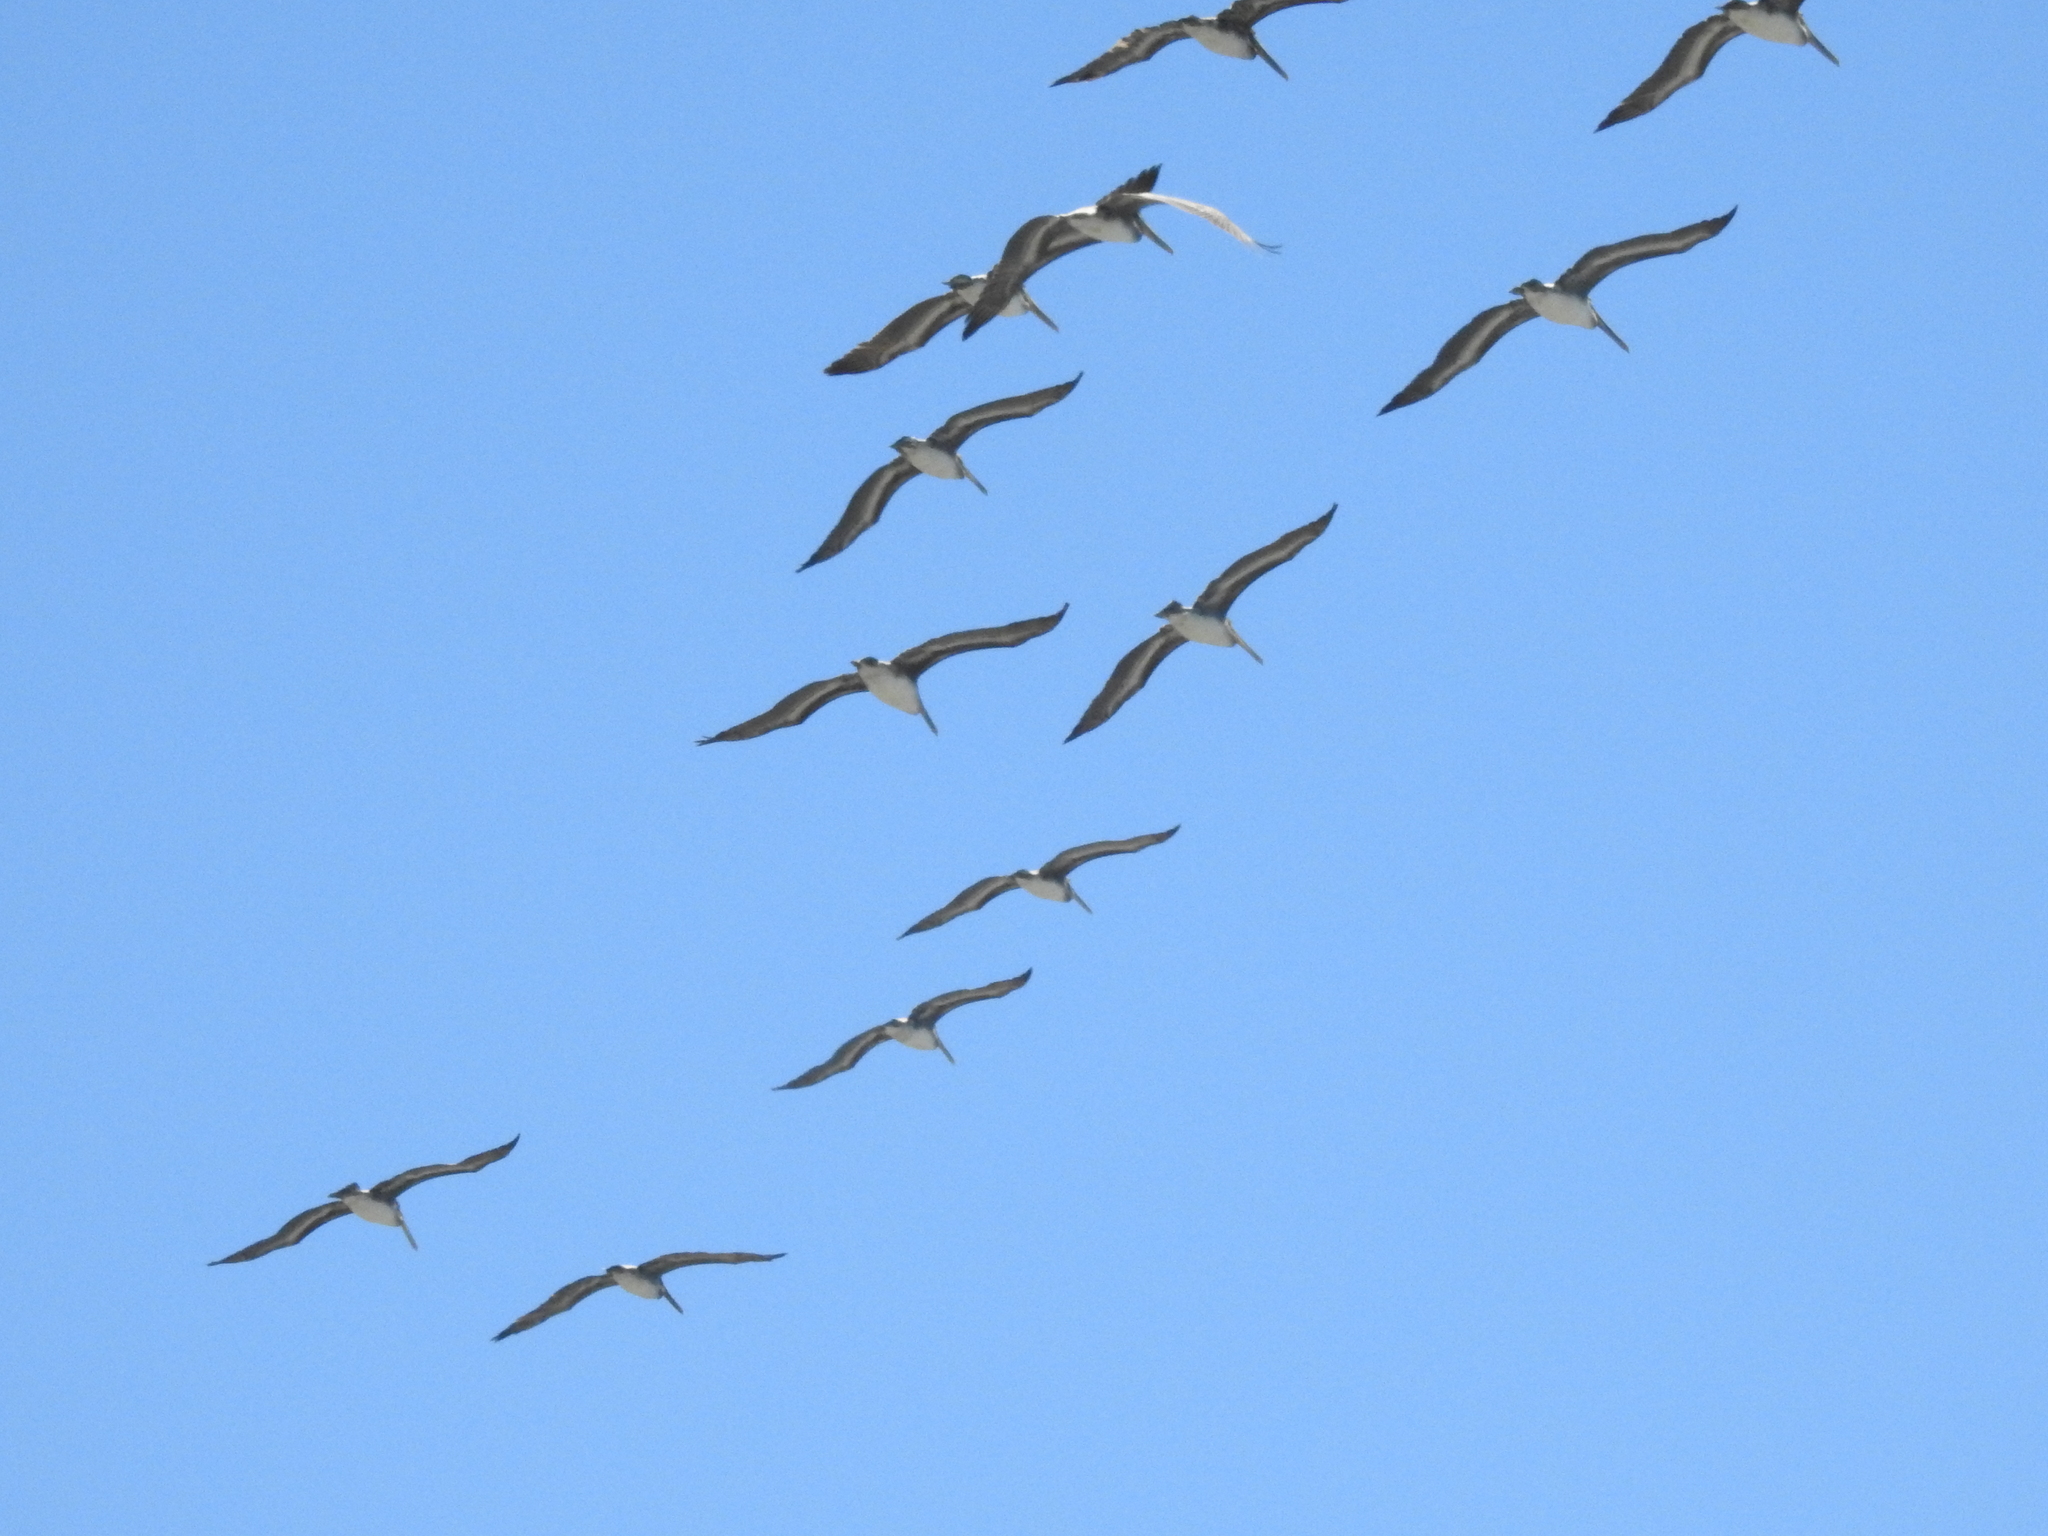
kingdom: Animalia
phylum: Chordata
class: Aves
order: Pelecaniformes
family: Pelecanidae
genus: Pelecanus
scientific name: Pelecanus occidentalis
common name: Brown pelican
